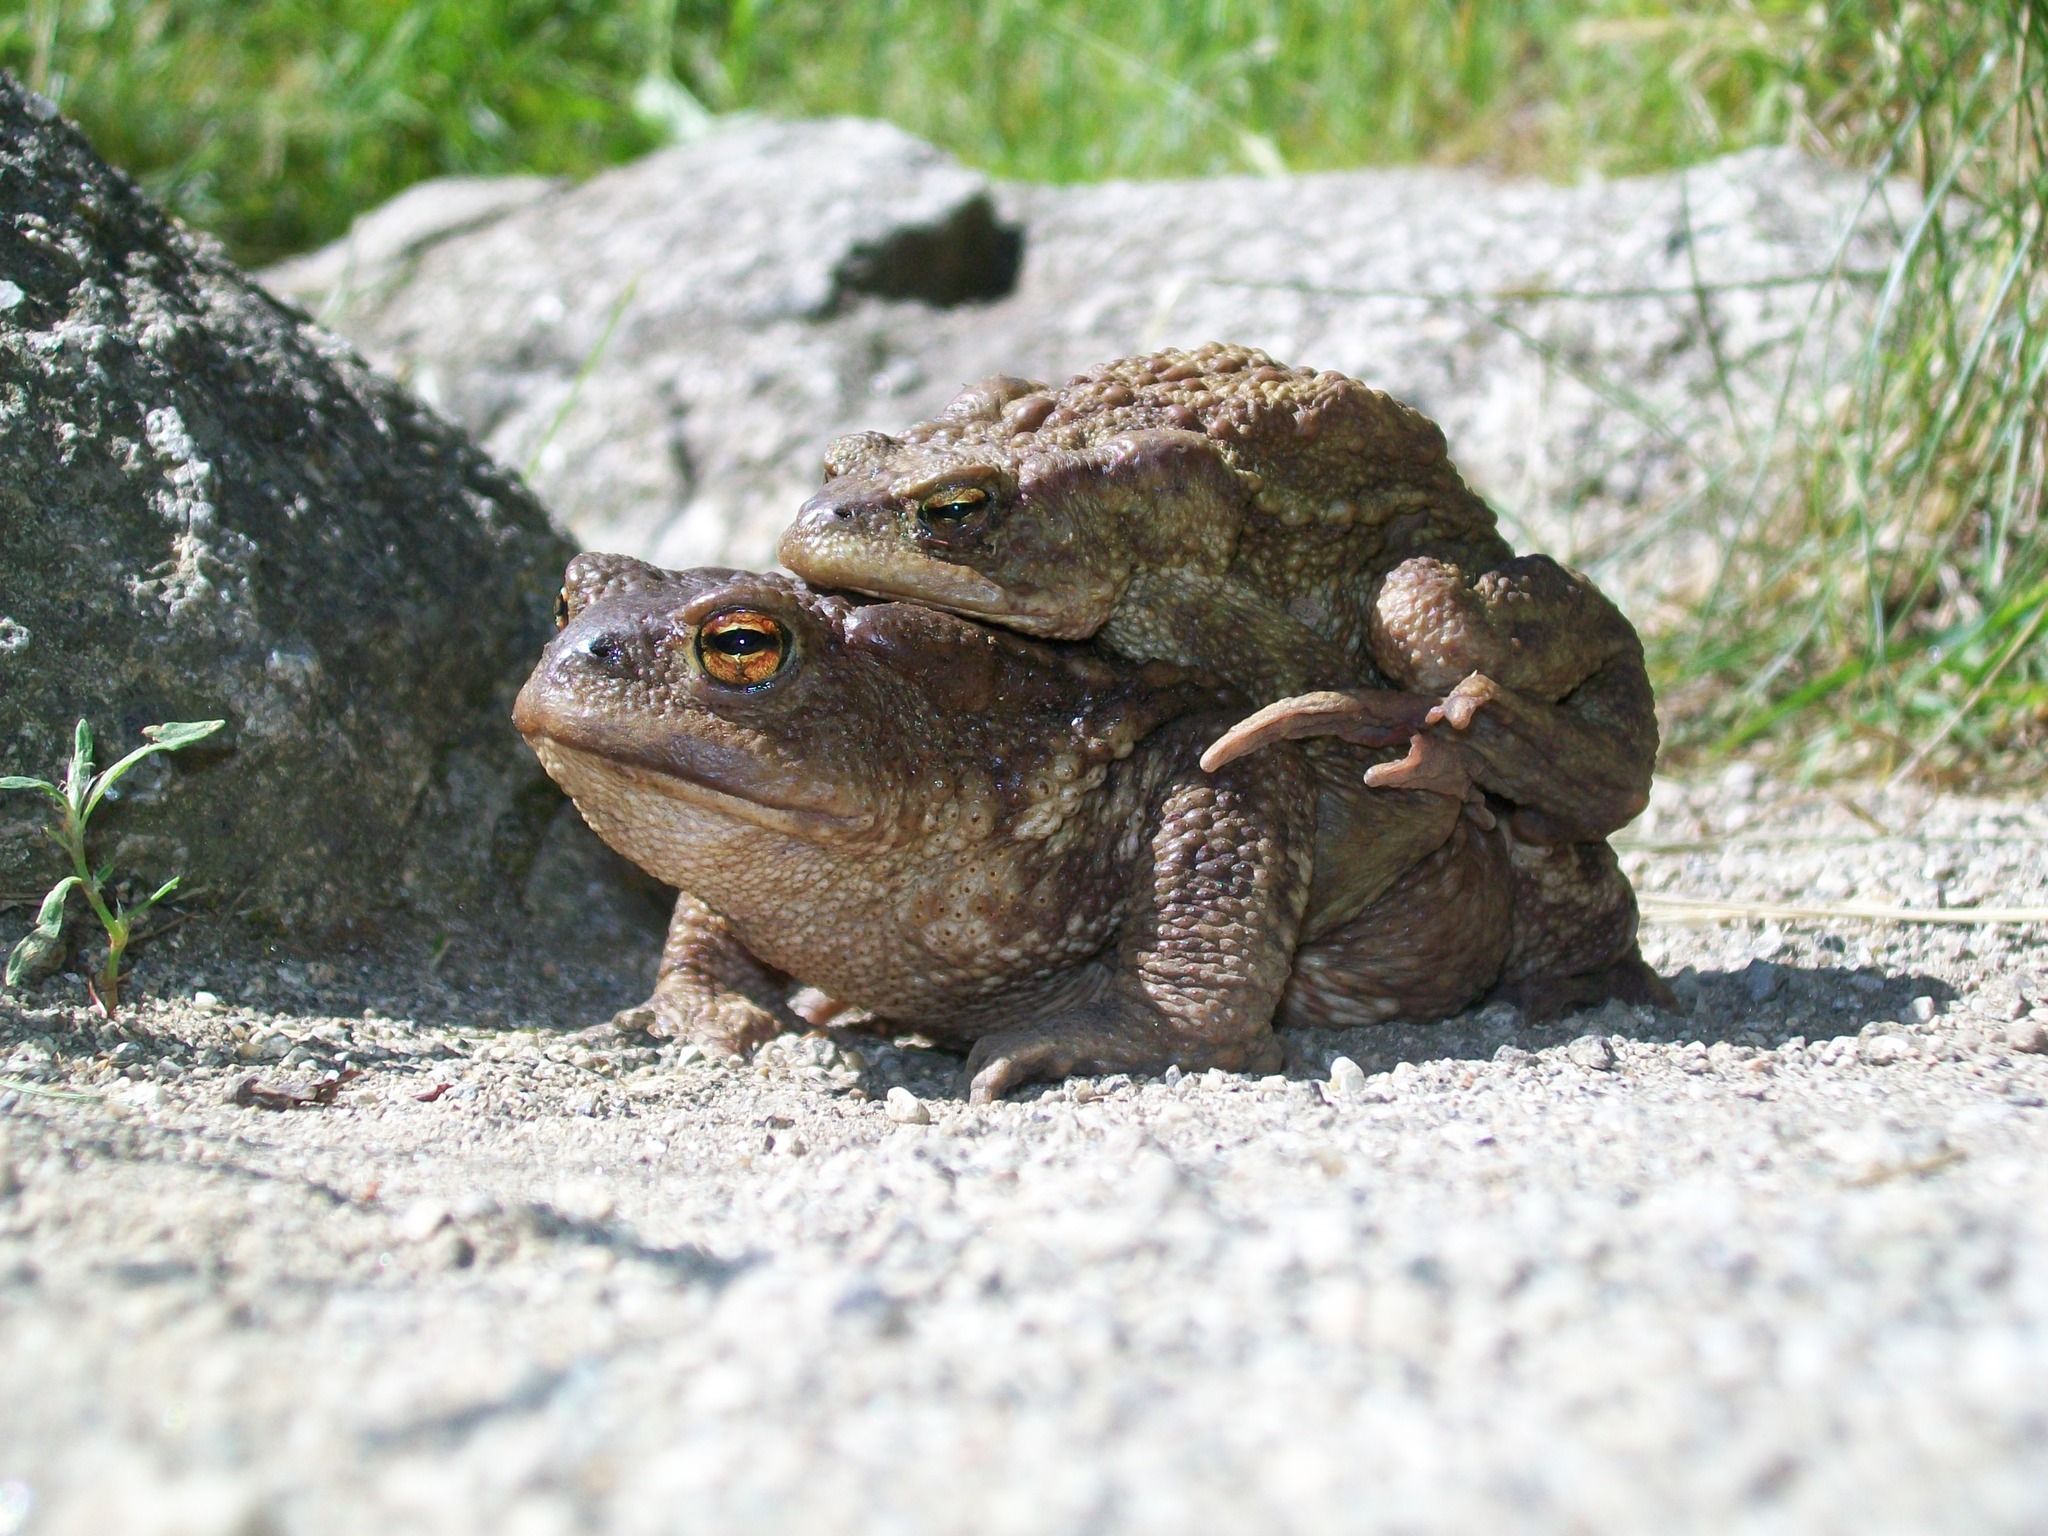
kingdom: Animalia
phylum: Chordata
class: Amphibia
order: Anura
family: Bufonidae
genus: Bufo
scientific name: Bufo bufo
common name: Common toad
